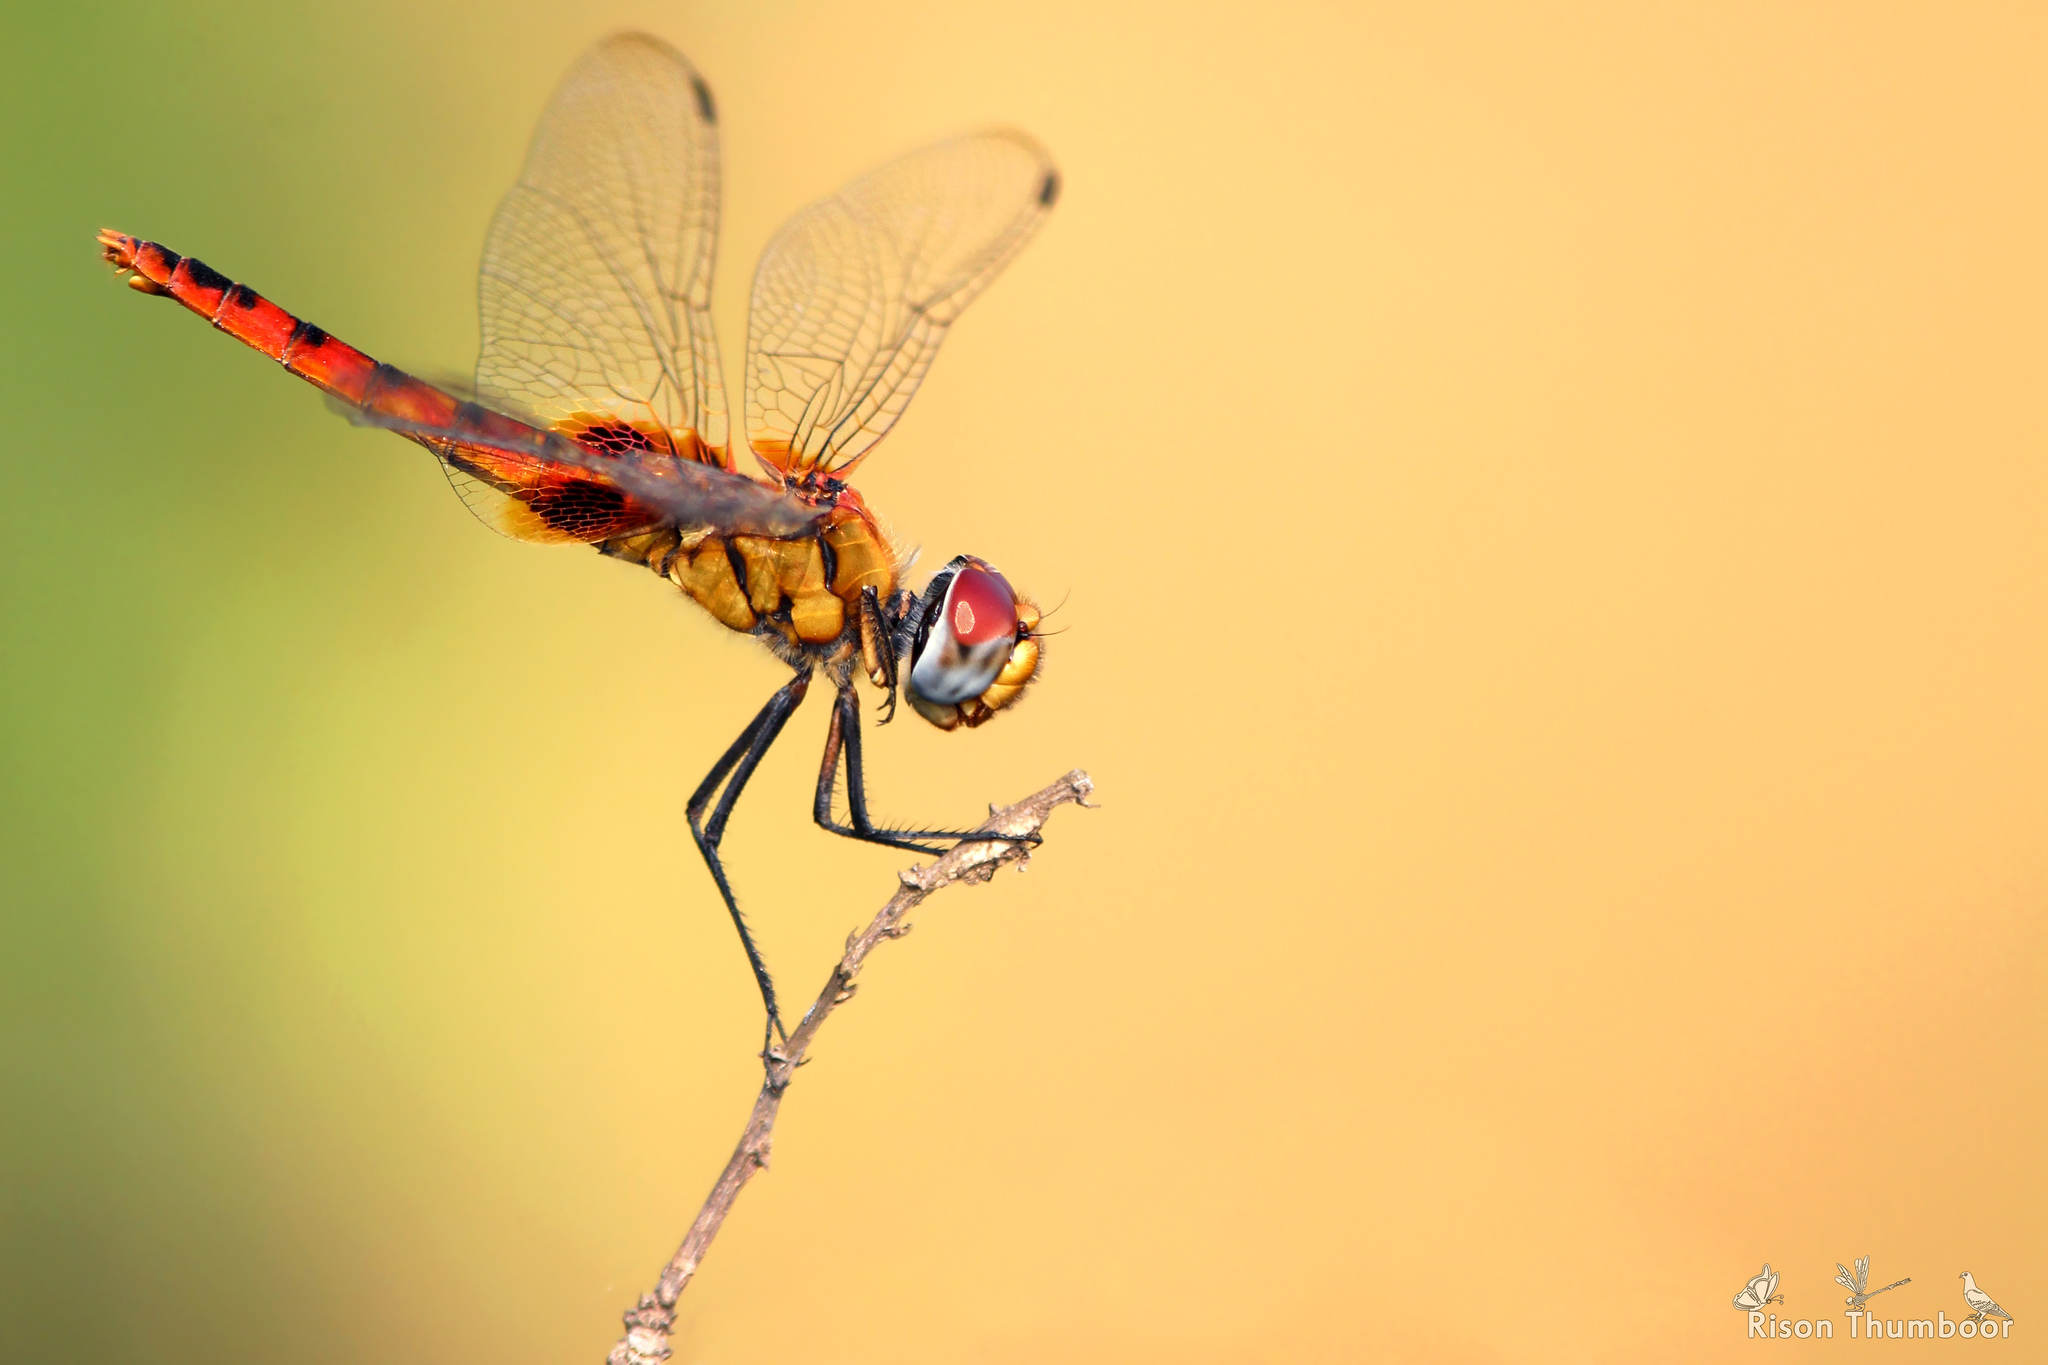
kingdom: Animalia
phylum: Arthropoda
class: Insecta
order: Odonata
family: Libellulidae
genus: Urothemis
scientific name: Urothemis signata
